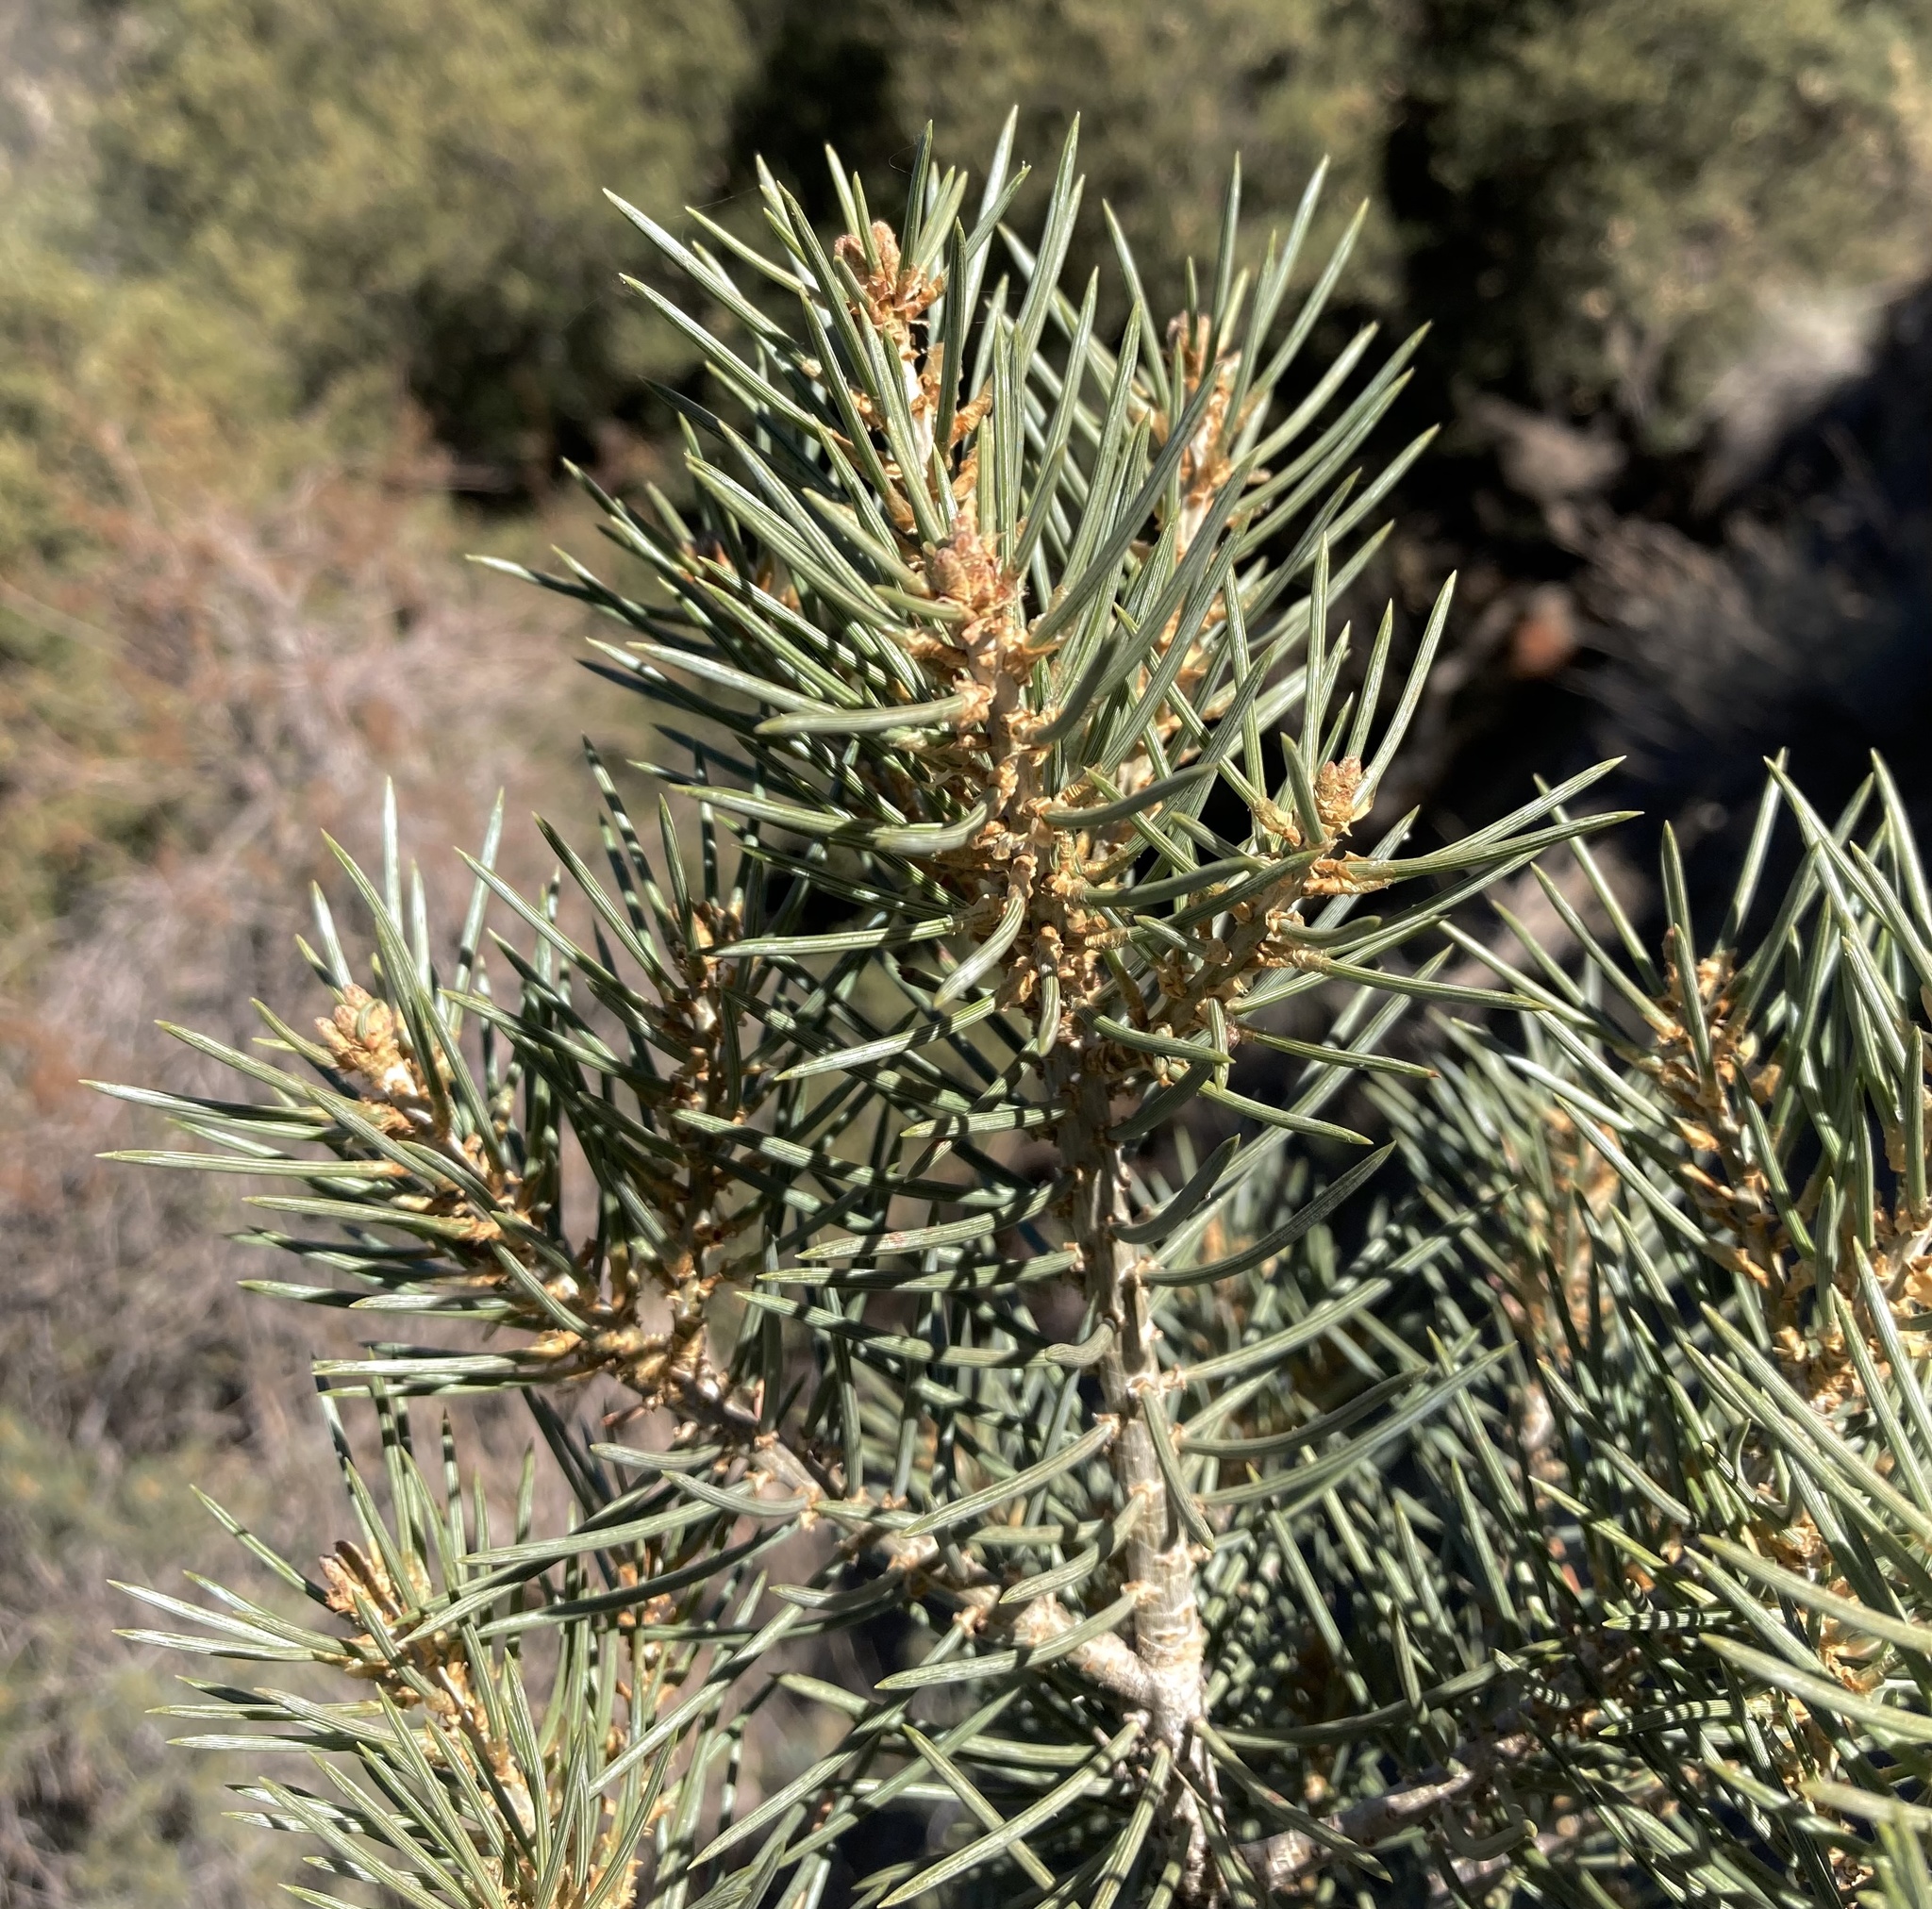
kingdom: Plantae
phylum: Tracheophyta
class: Pinopsida
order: Pinales
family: Pinaceae
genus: Pinus
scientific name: Pinus monophylla
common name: One-leaved nut pine
